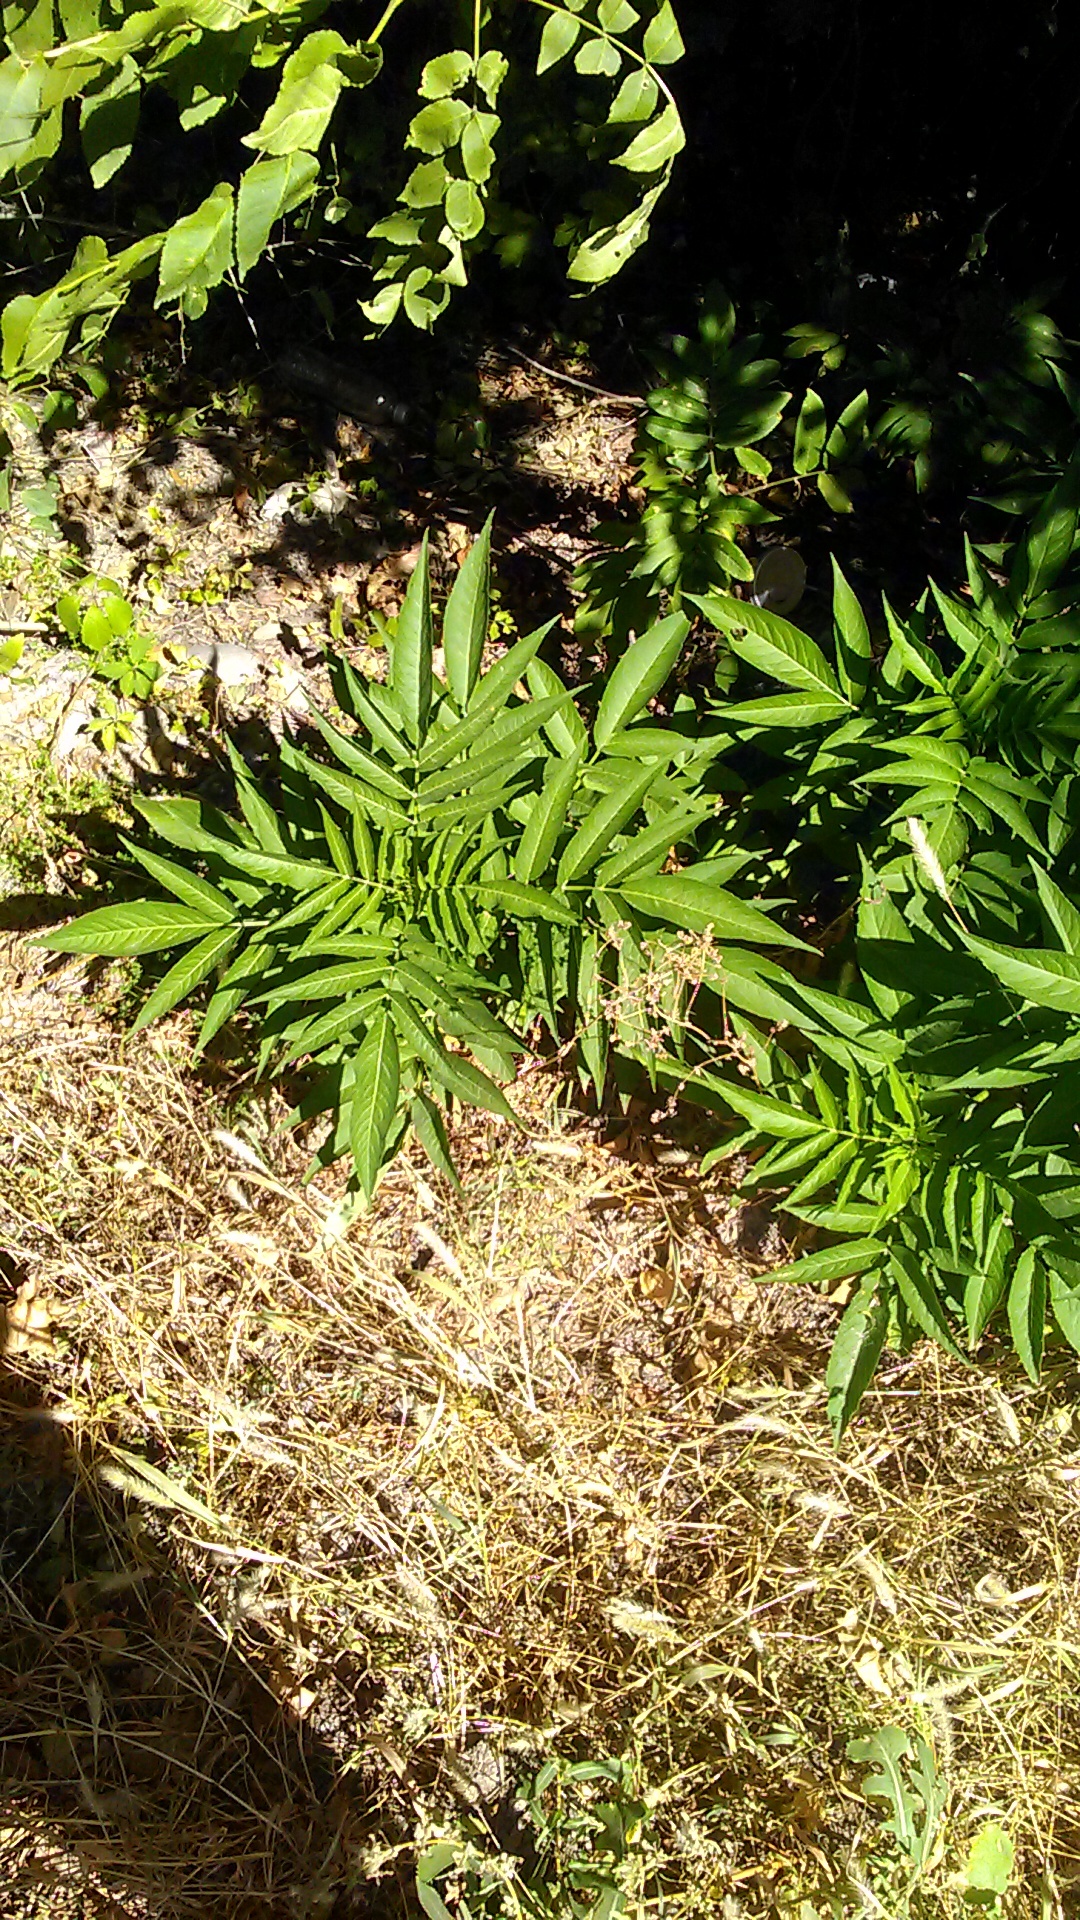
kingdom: Plantae
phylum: Tracheophyta
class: Magnoliopsida
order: Dipsacales
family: Viburnaceae
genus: Sambucus
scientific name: Sambucus ebulus
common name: Dwarf elder
